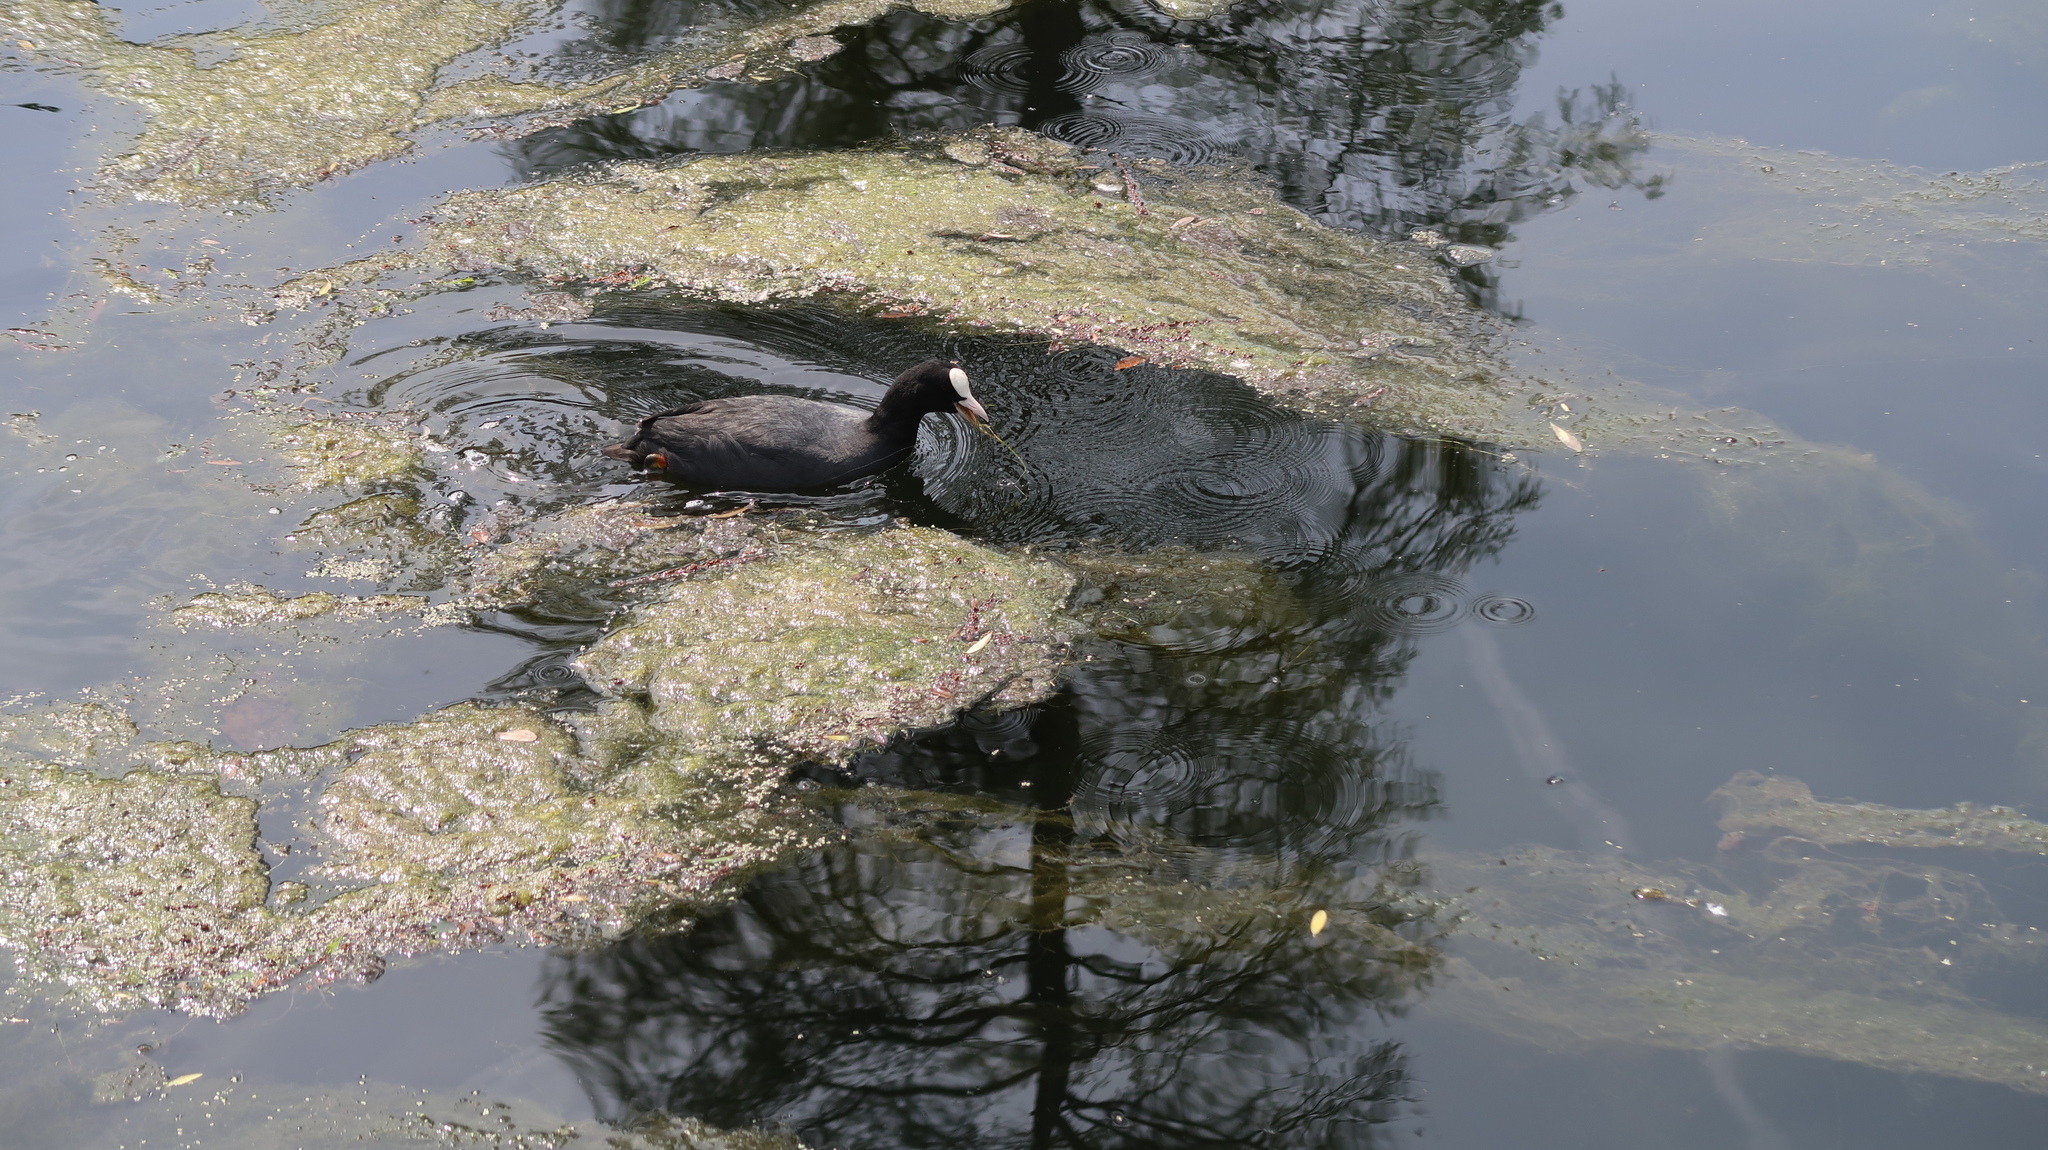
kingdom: Animalia
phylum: Chordata
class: Aves
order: Gruiformes
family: Rallidae
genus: Fulica
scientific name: Fulica atra
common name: Eurasian coot
